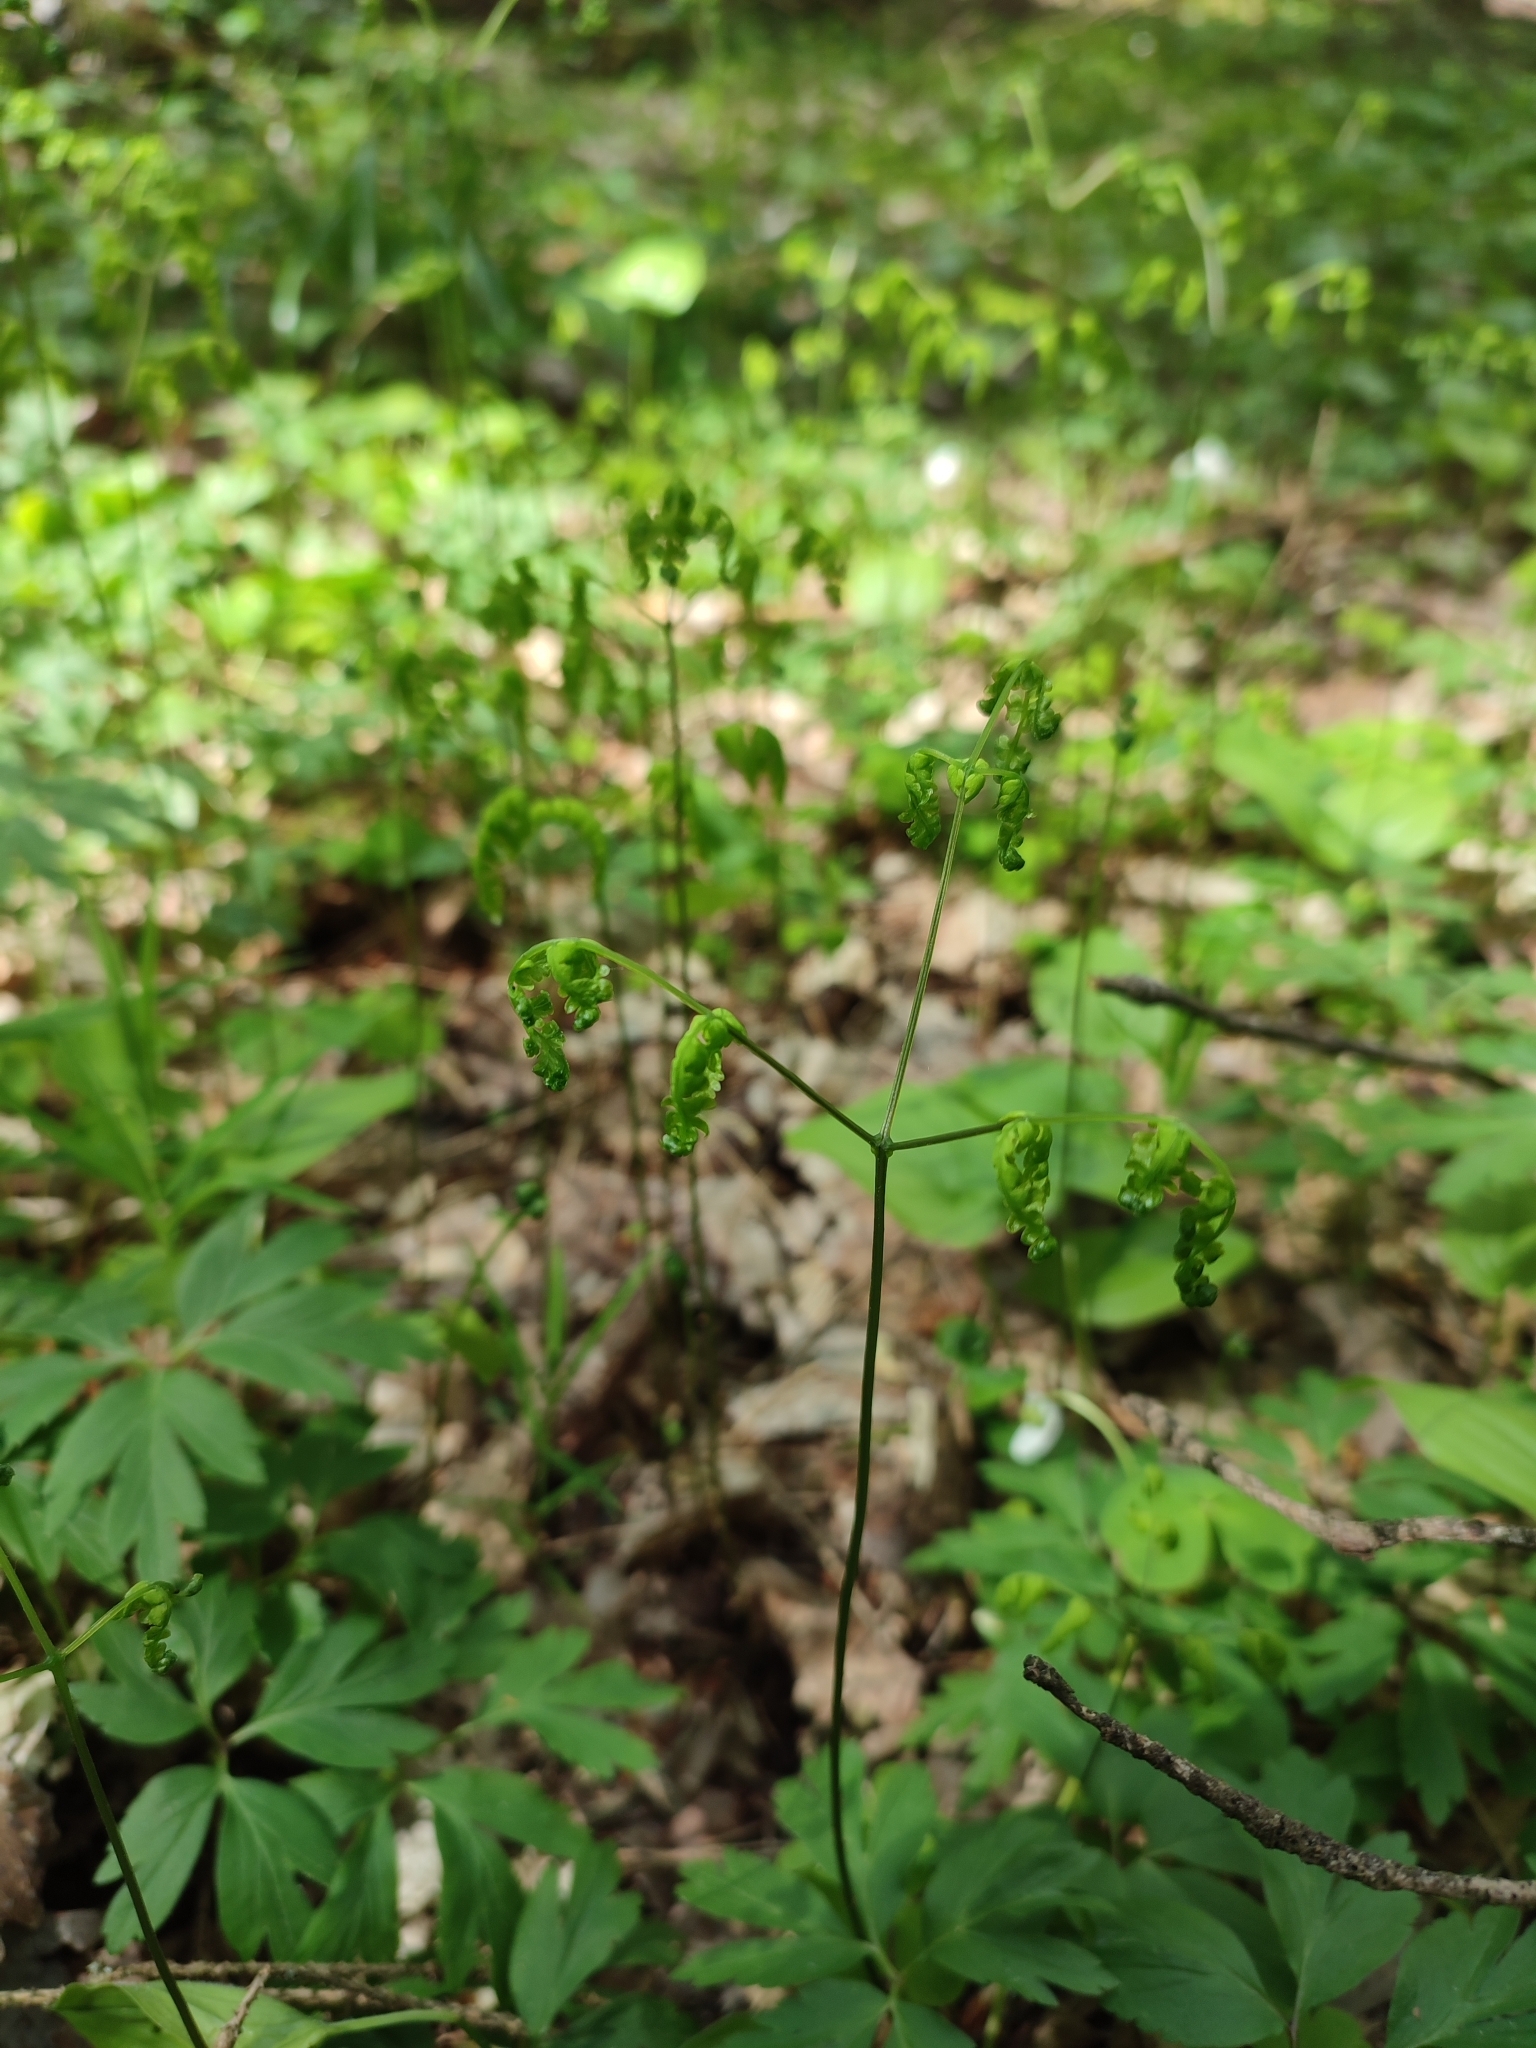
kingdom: Plantae
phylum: Tracheophyta
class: Polypodiopsida
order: Polypodiales
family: Cystopteridaceae
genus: Gymnocarpium
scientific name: Gymnocarpium dryopteris
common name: Oak fern
